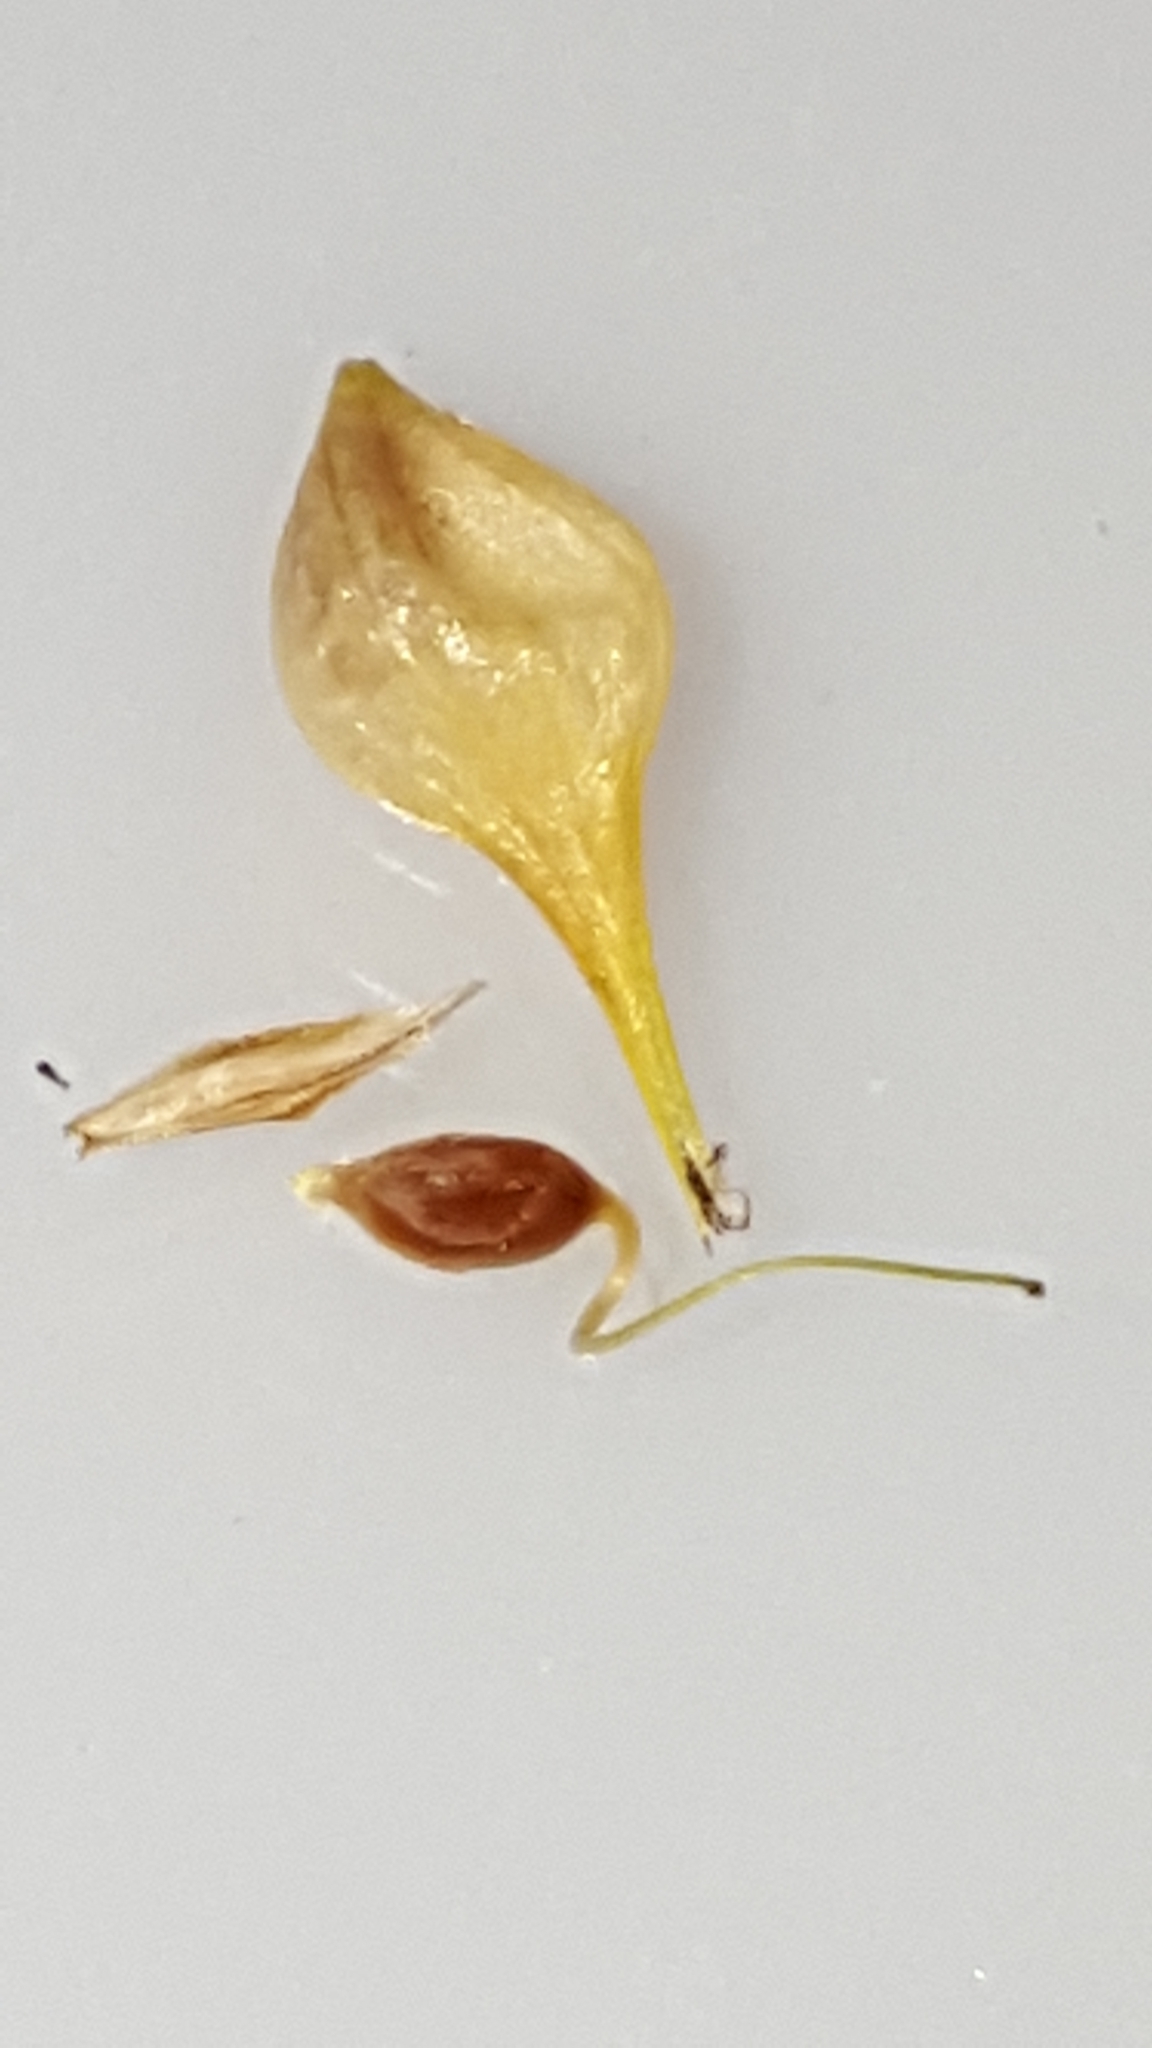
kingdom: Plantae
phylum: Tracheophyta
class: Liliopsida
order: Poales
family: Cyperaceae
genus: Carex
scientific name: Carex retrorsa
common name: Knot-sheath sedge
